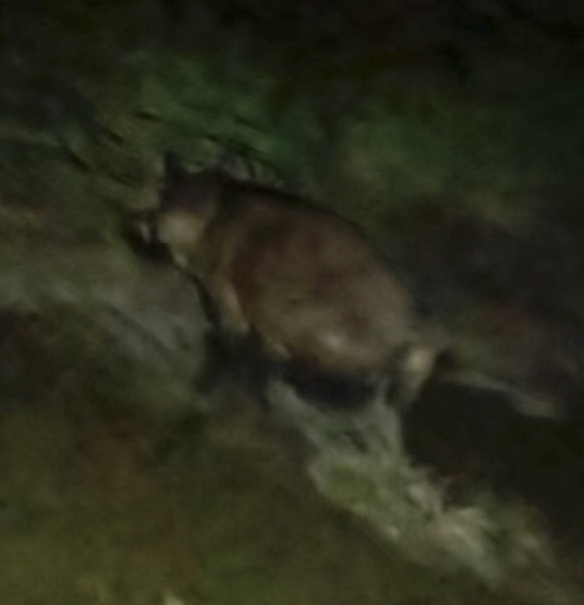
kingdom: Animalia
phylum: Chordata
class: Mammalia
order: Artiodactyla
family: Suidae
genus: Sus
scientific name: Sus scrofa
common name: Wild boar
